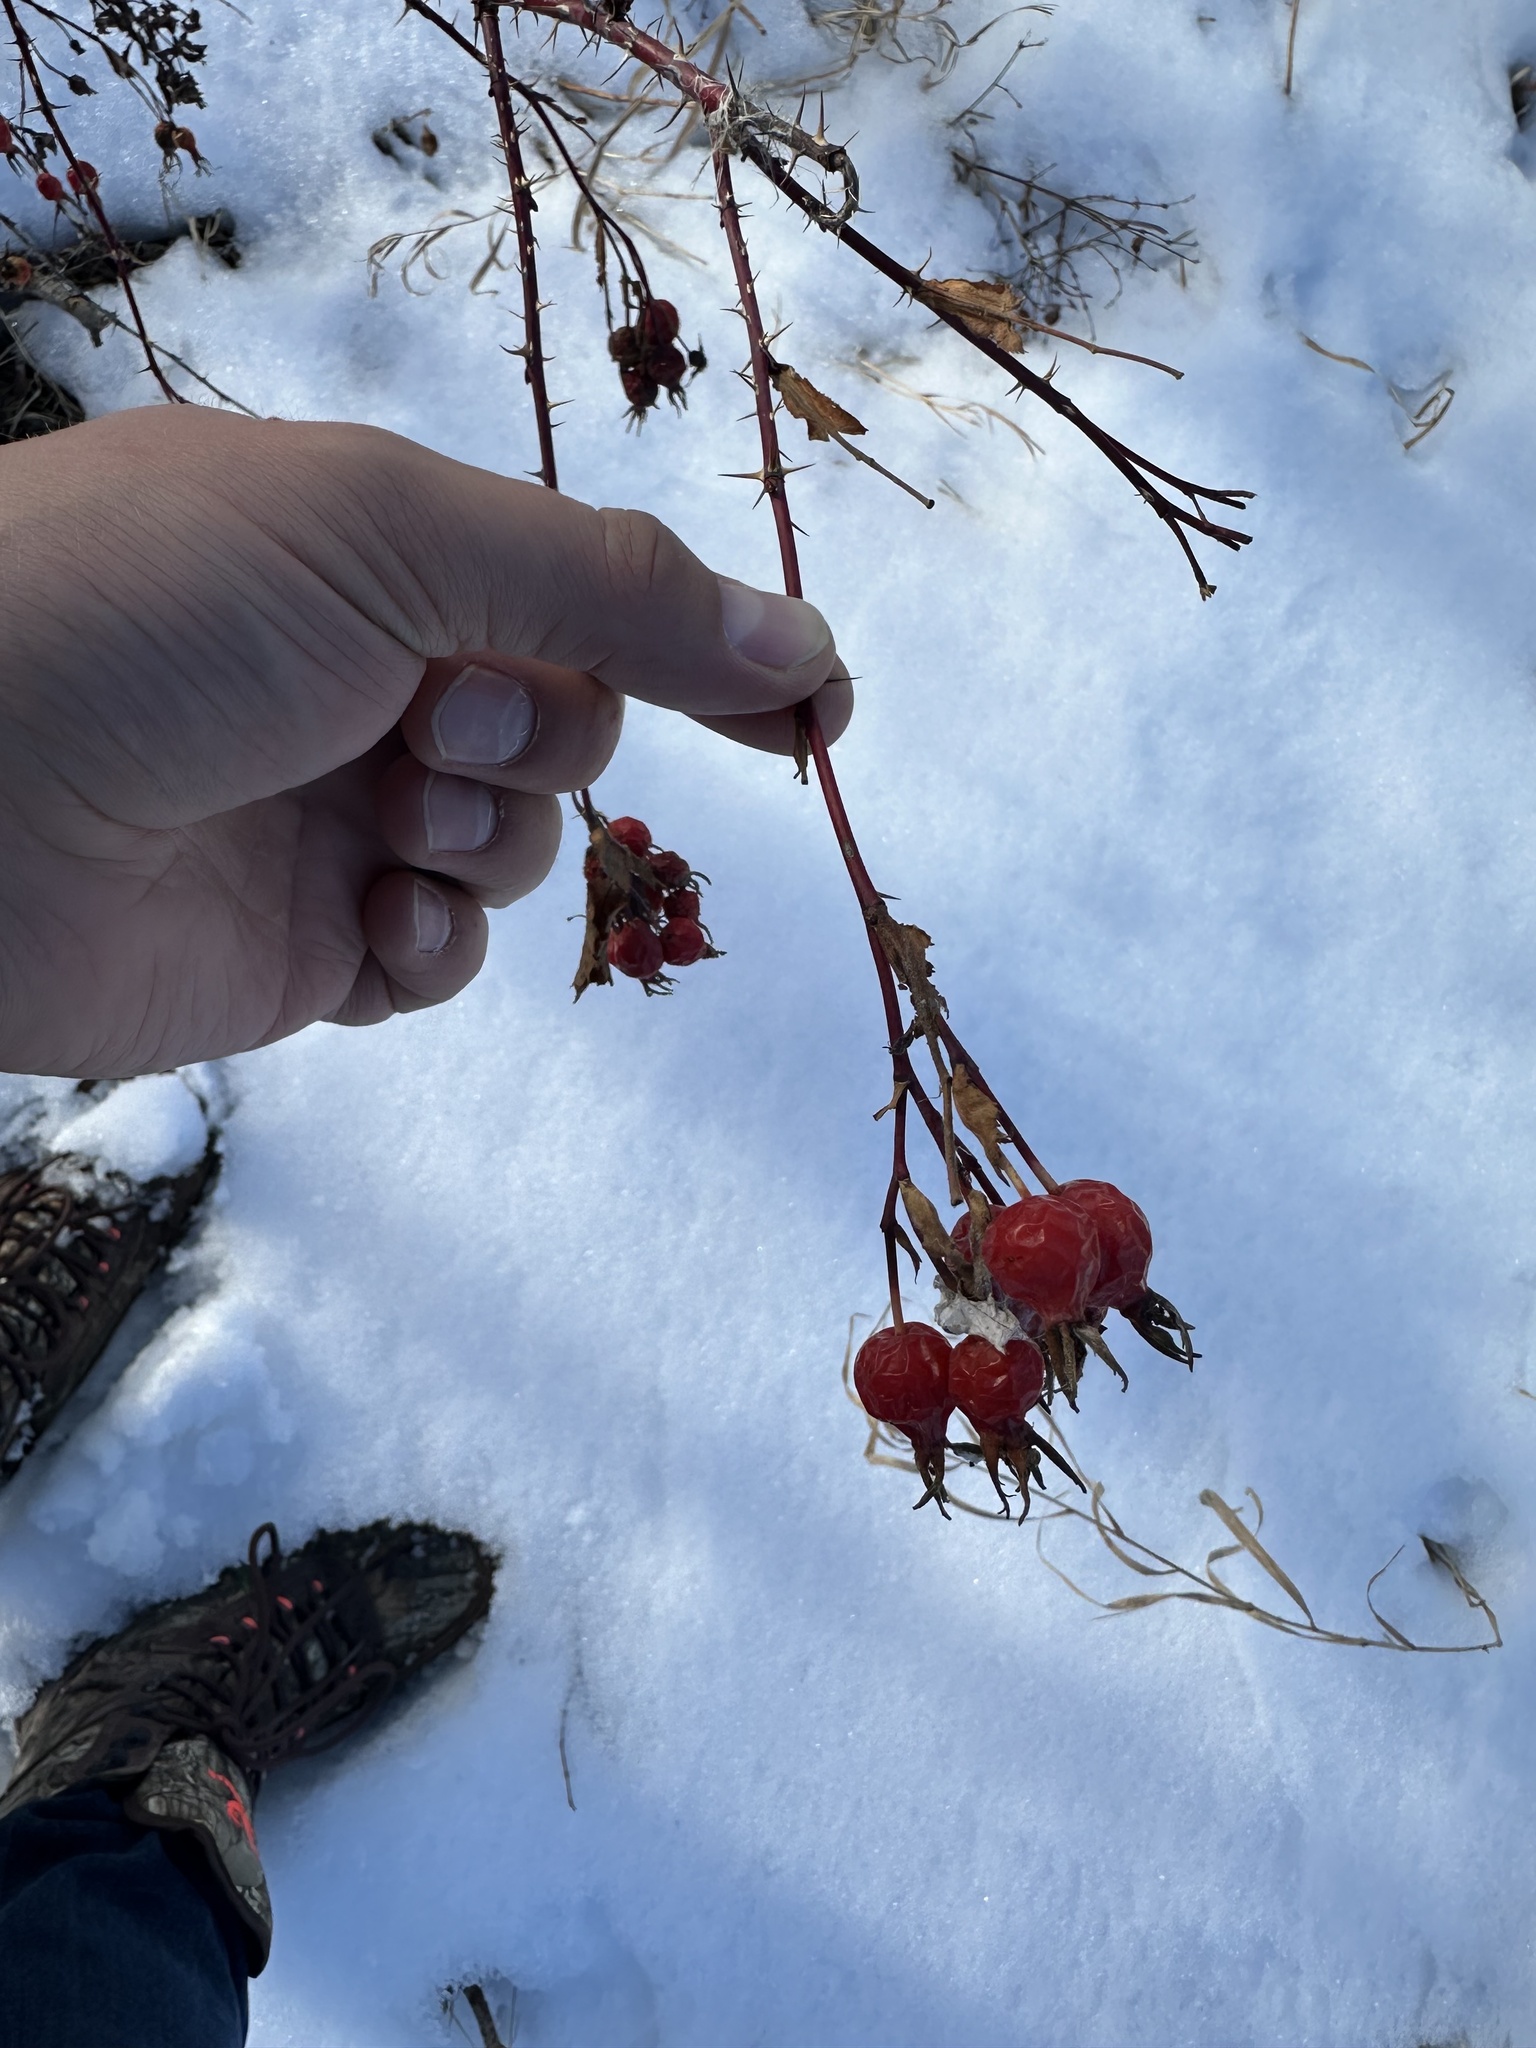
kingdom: Plantae
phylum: Tracheophyta
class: Magnoliopsida
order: Rosales
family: Rosaceae
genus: Rosa
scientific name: Rosa woodsii
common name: Woods's rose
